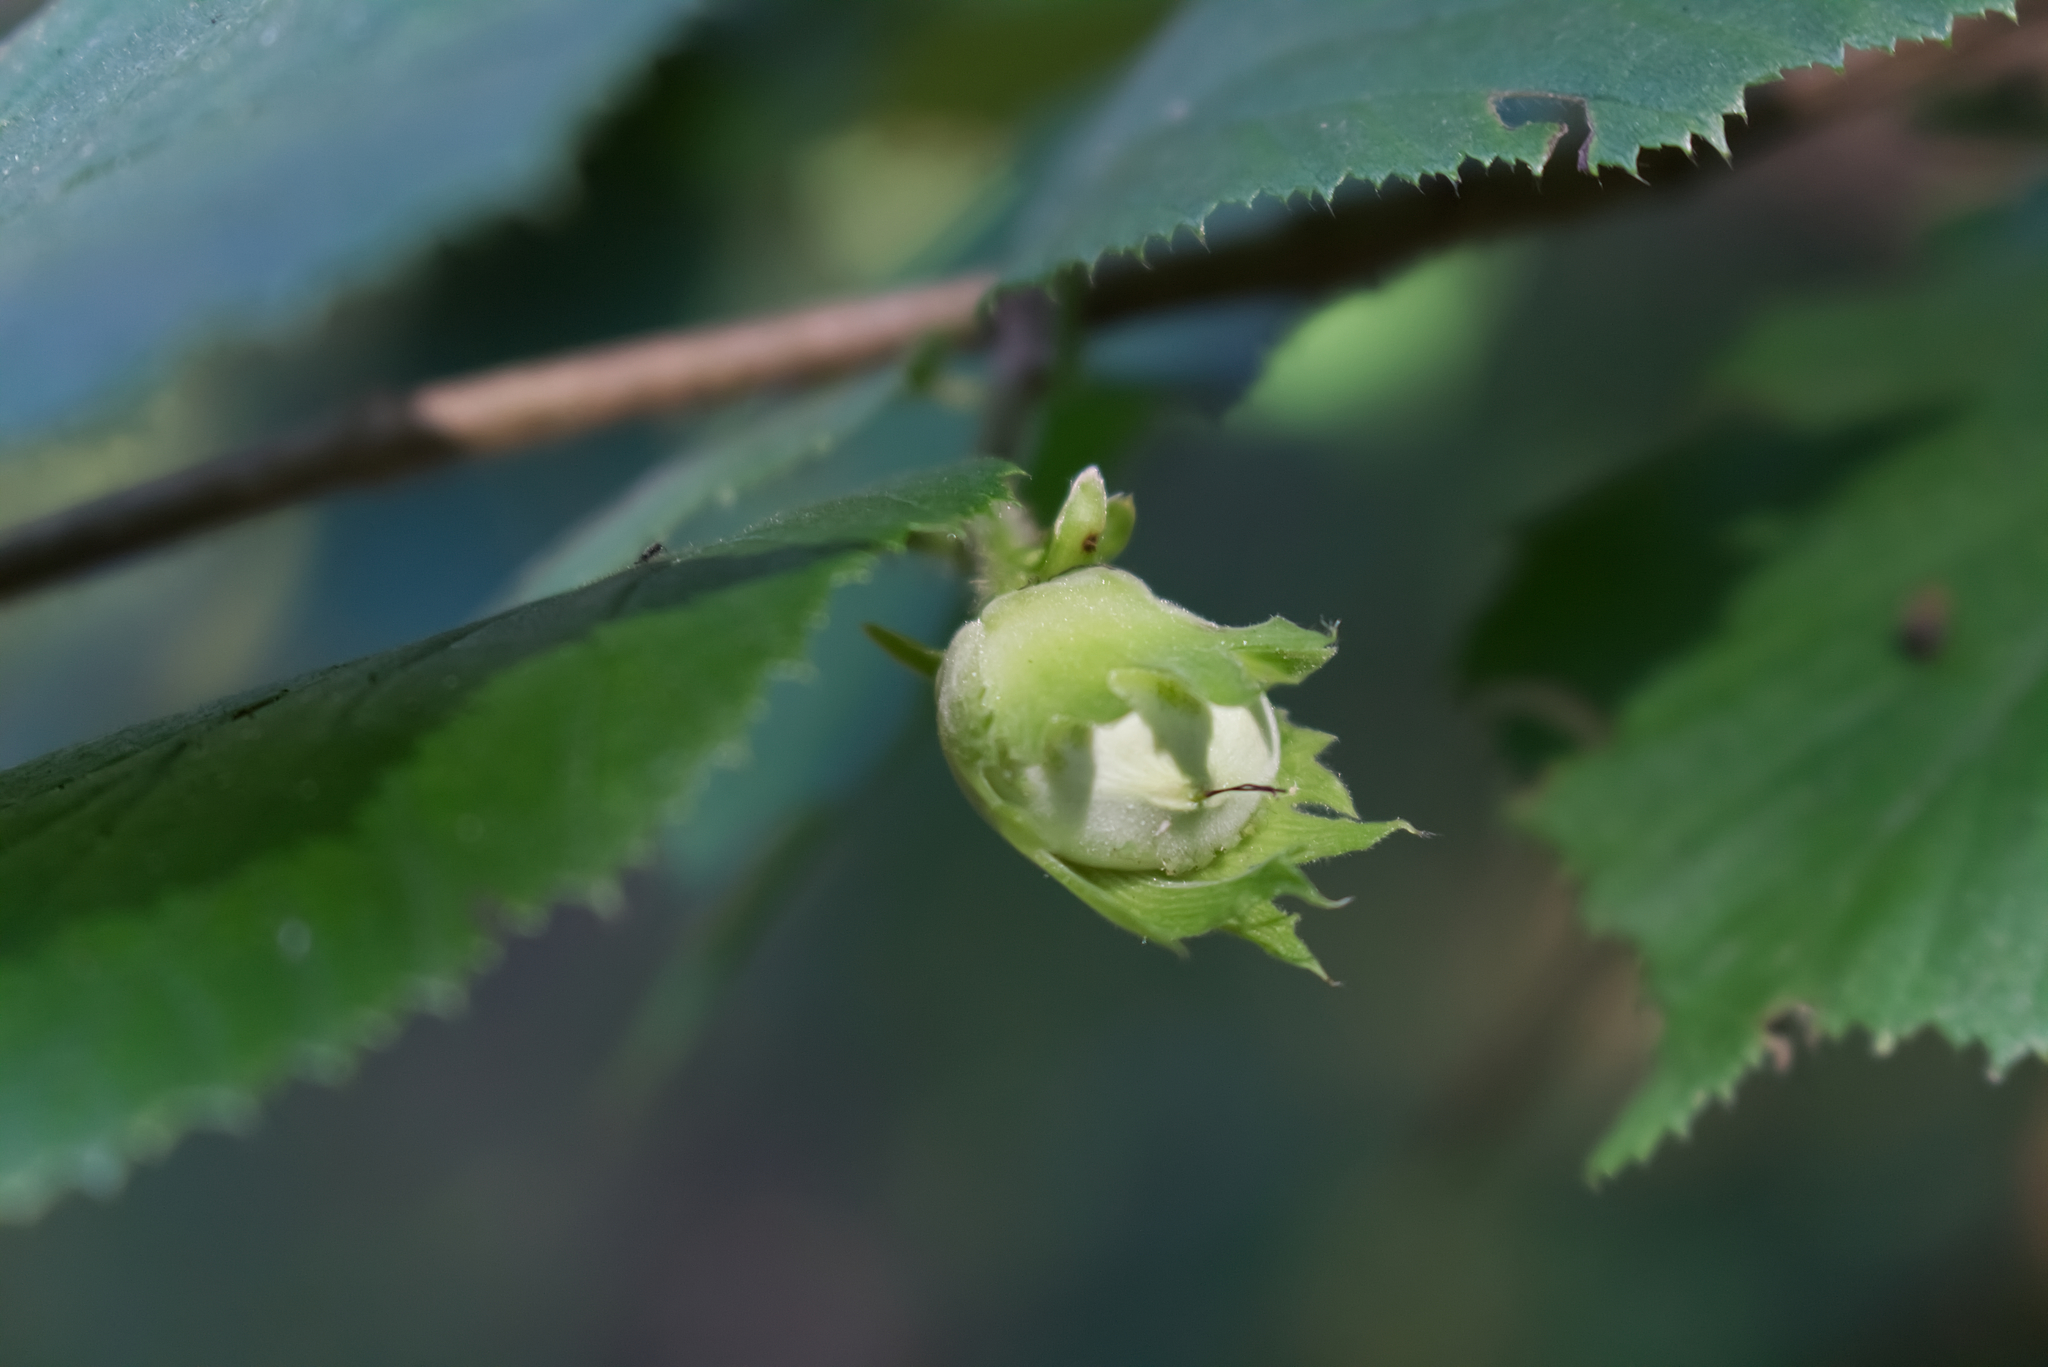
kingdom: Plantae
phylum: Tracheophyta
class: Magnoliopsida
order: Fagales
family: Betulaceae
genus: Corylus
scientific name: Corylus avellana
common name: European hazel
